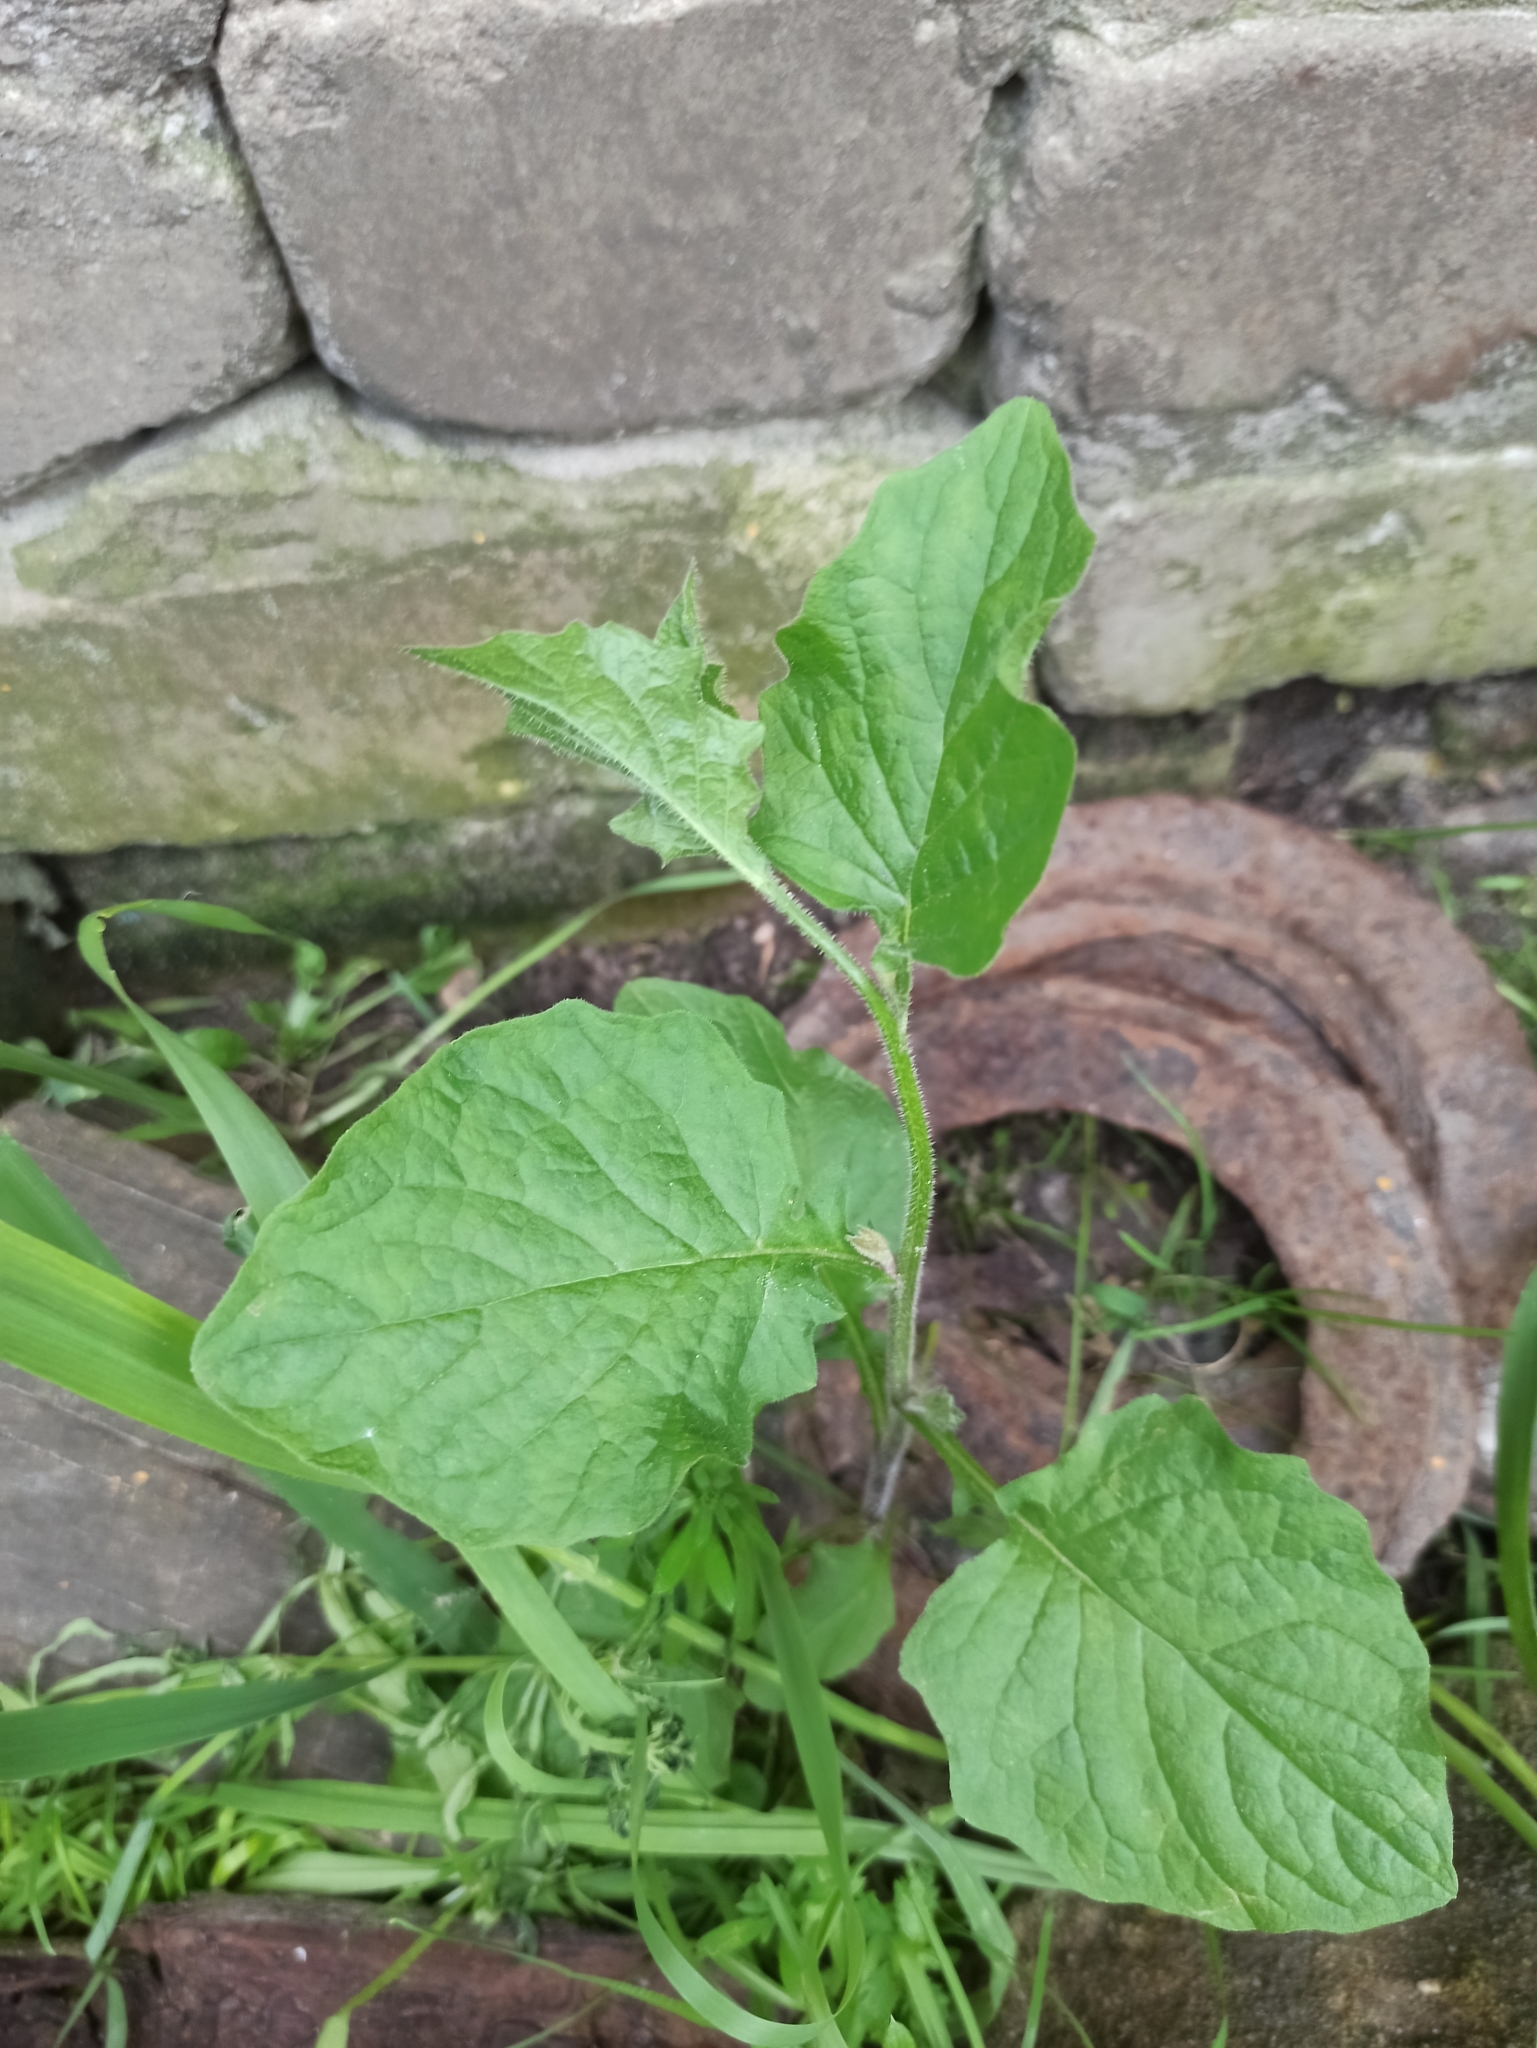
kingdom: Plantae
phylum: Tracheophyta
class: Magnoliopsida
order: Asterales
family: Asteraceae
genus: Lapsana
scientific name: Lapsana communis
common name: Nipplewort
